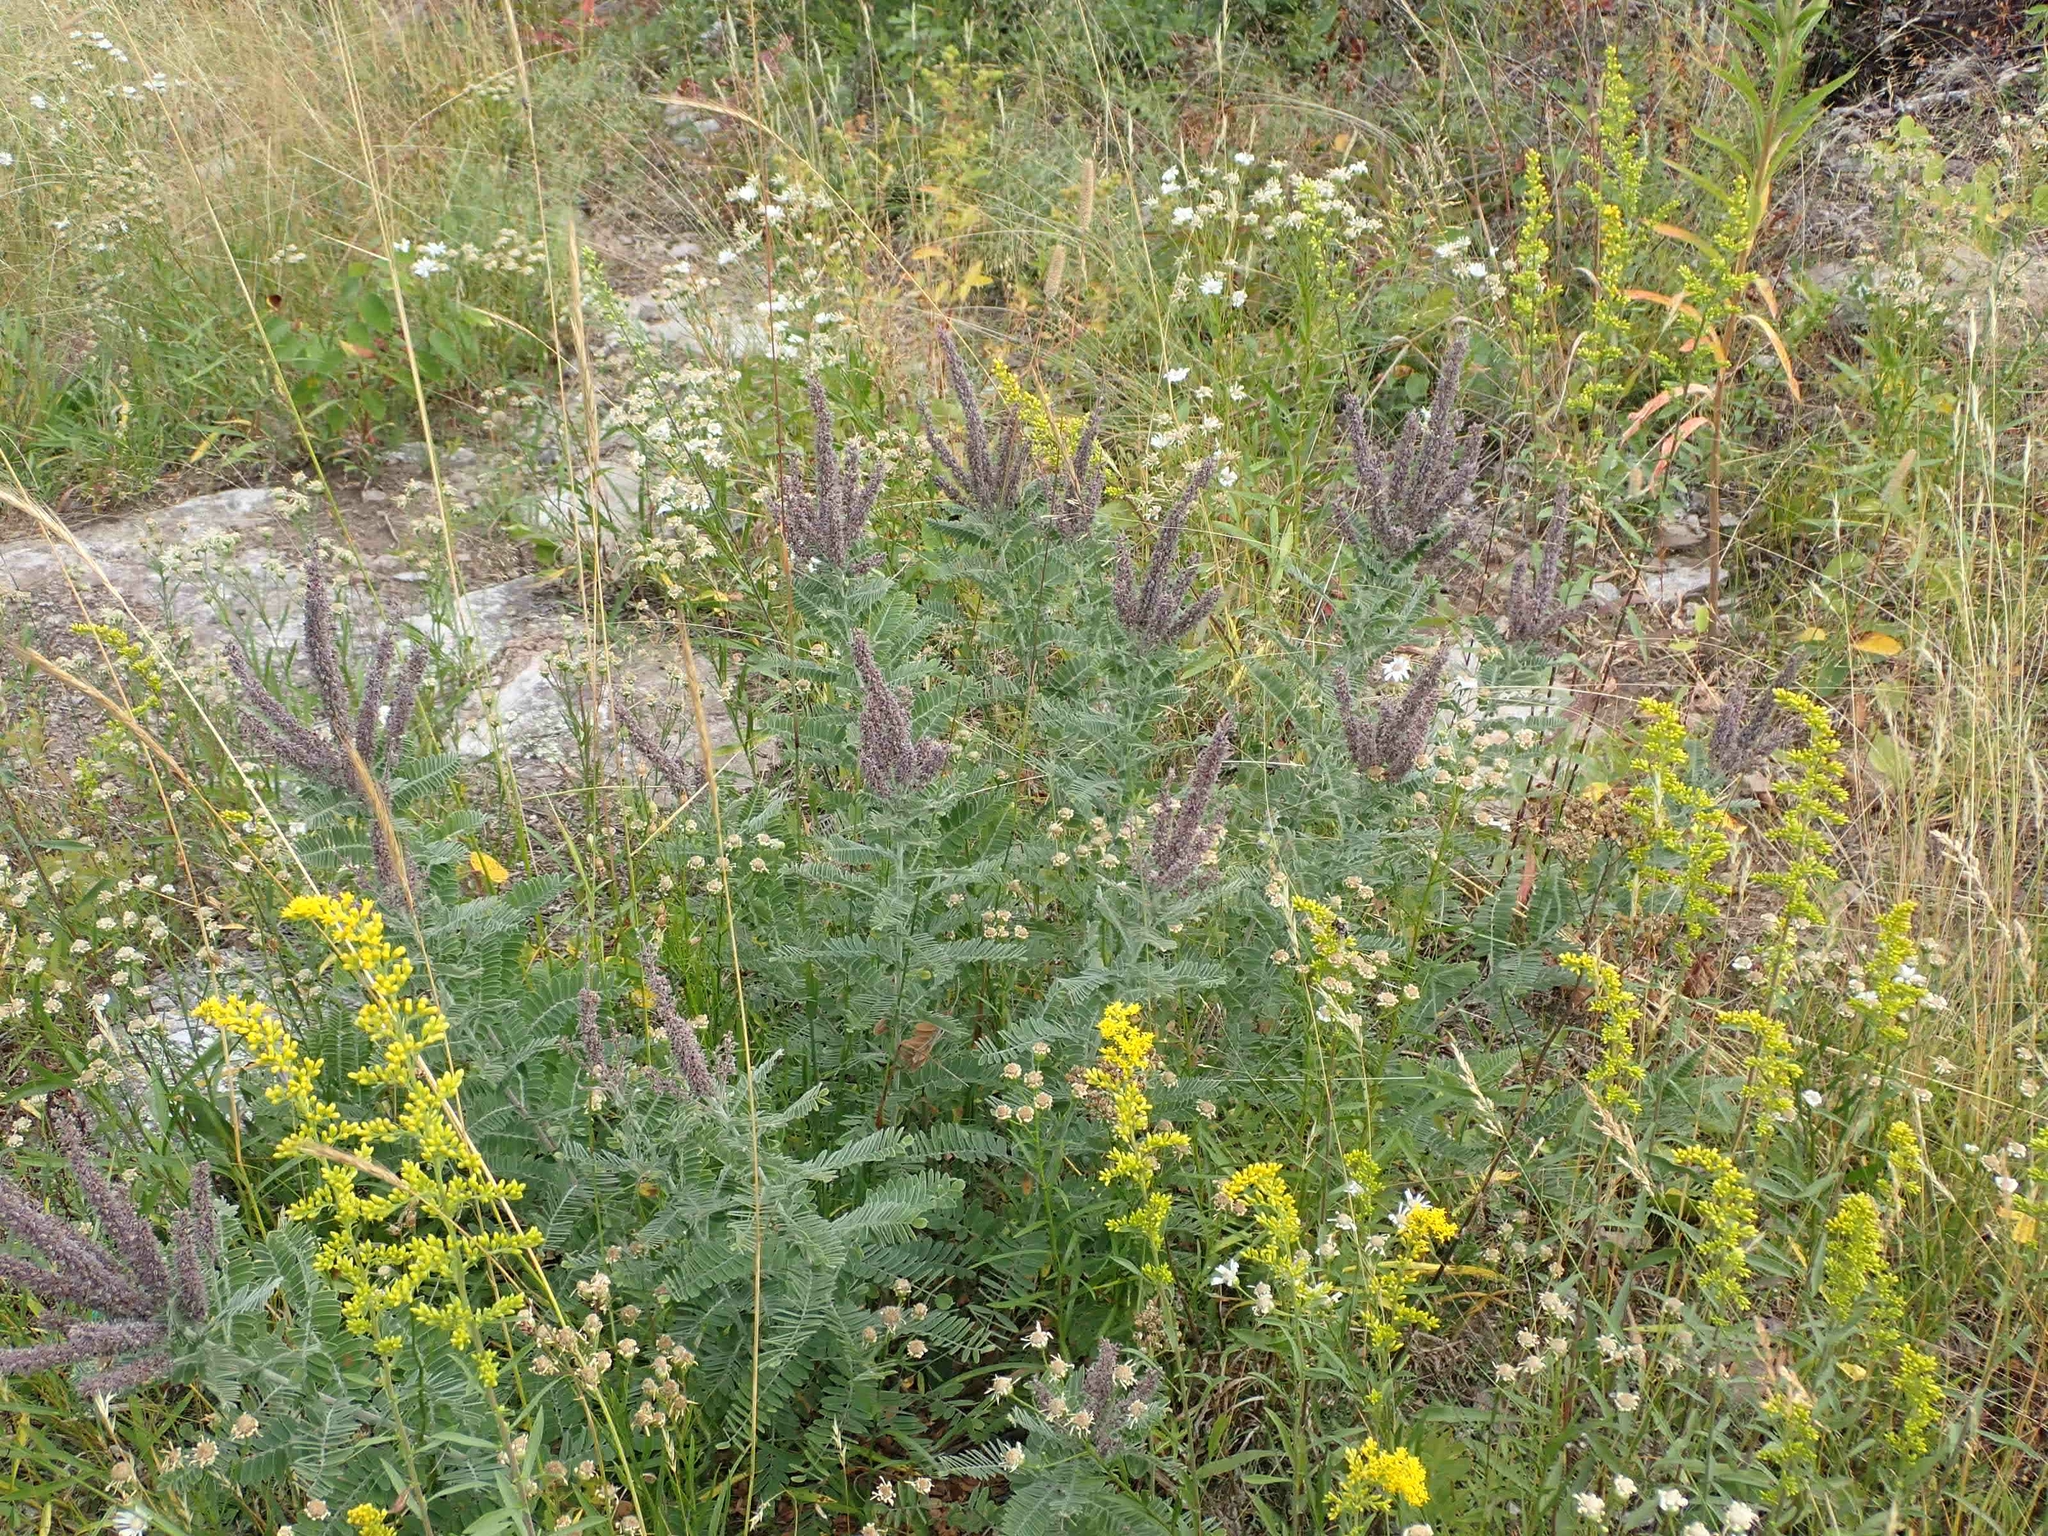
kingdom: Plantae
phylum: Tracheophyta
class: Magnoliopsida
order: Fabales
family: Fabaceae
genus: Amorpha
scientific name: Amorpha canescens
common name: Leadplant
